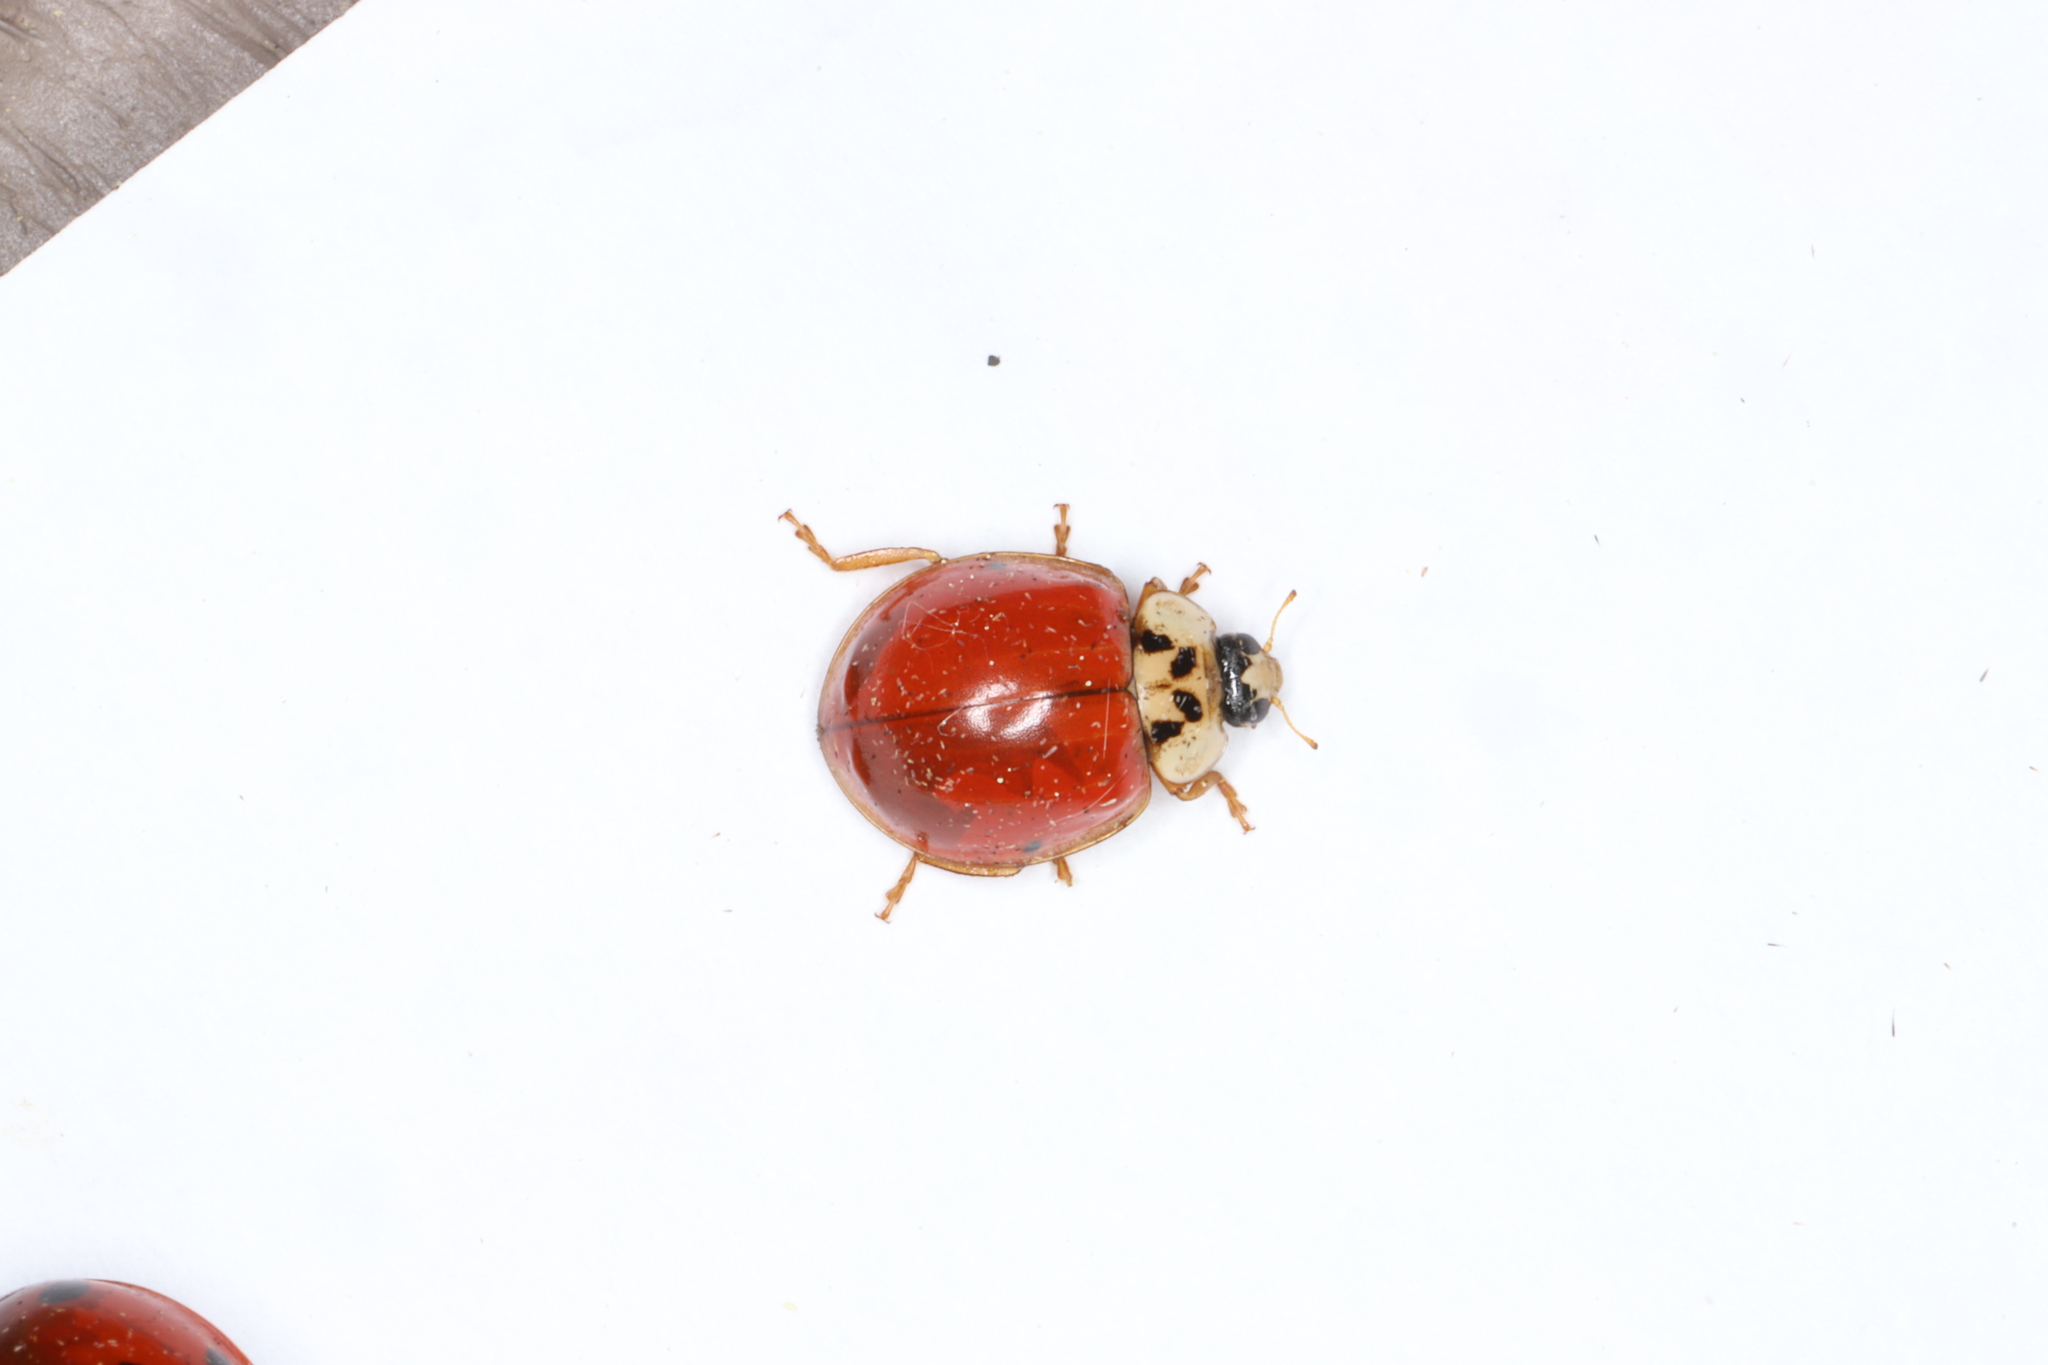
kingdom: Animalia
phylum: Arthropoda
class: Insecta
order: Coleoptera
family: Coccinellidae
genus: Harmonia
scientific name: Harmonia axyridis
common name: Harlequin ladybird
